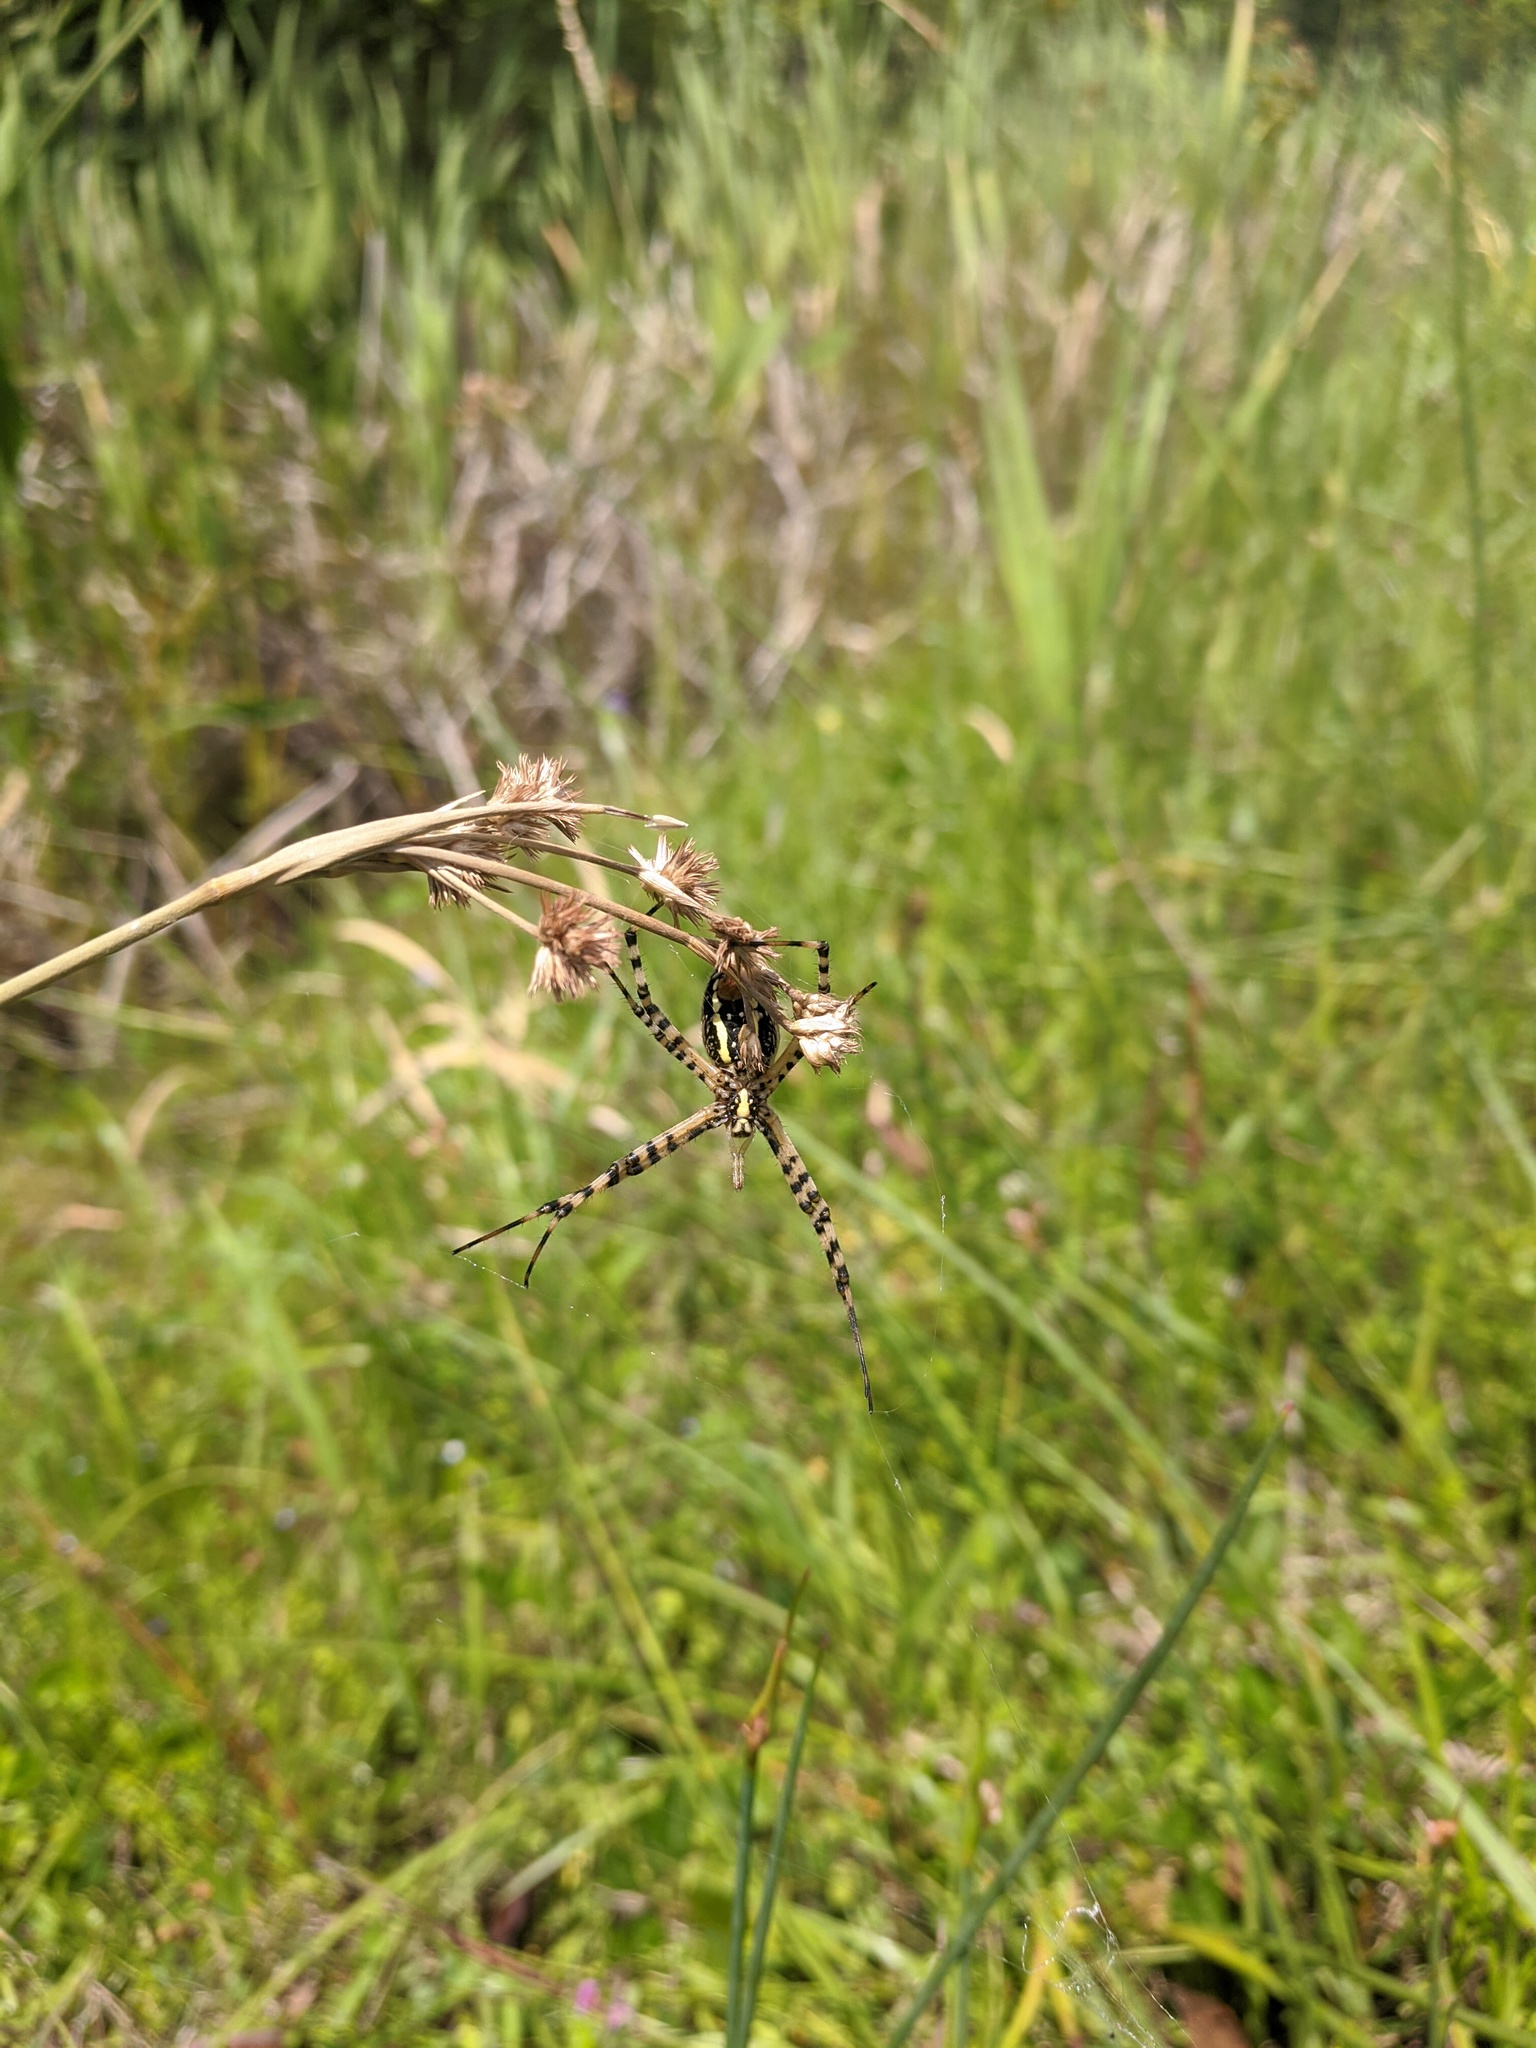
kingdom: Animalia
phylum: Arthropoda
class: Arachnida
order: Araneae
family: Araneidae
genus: Argiope
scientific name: Argiope trifasciata
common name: Banded garden spider
